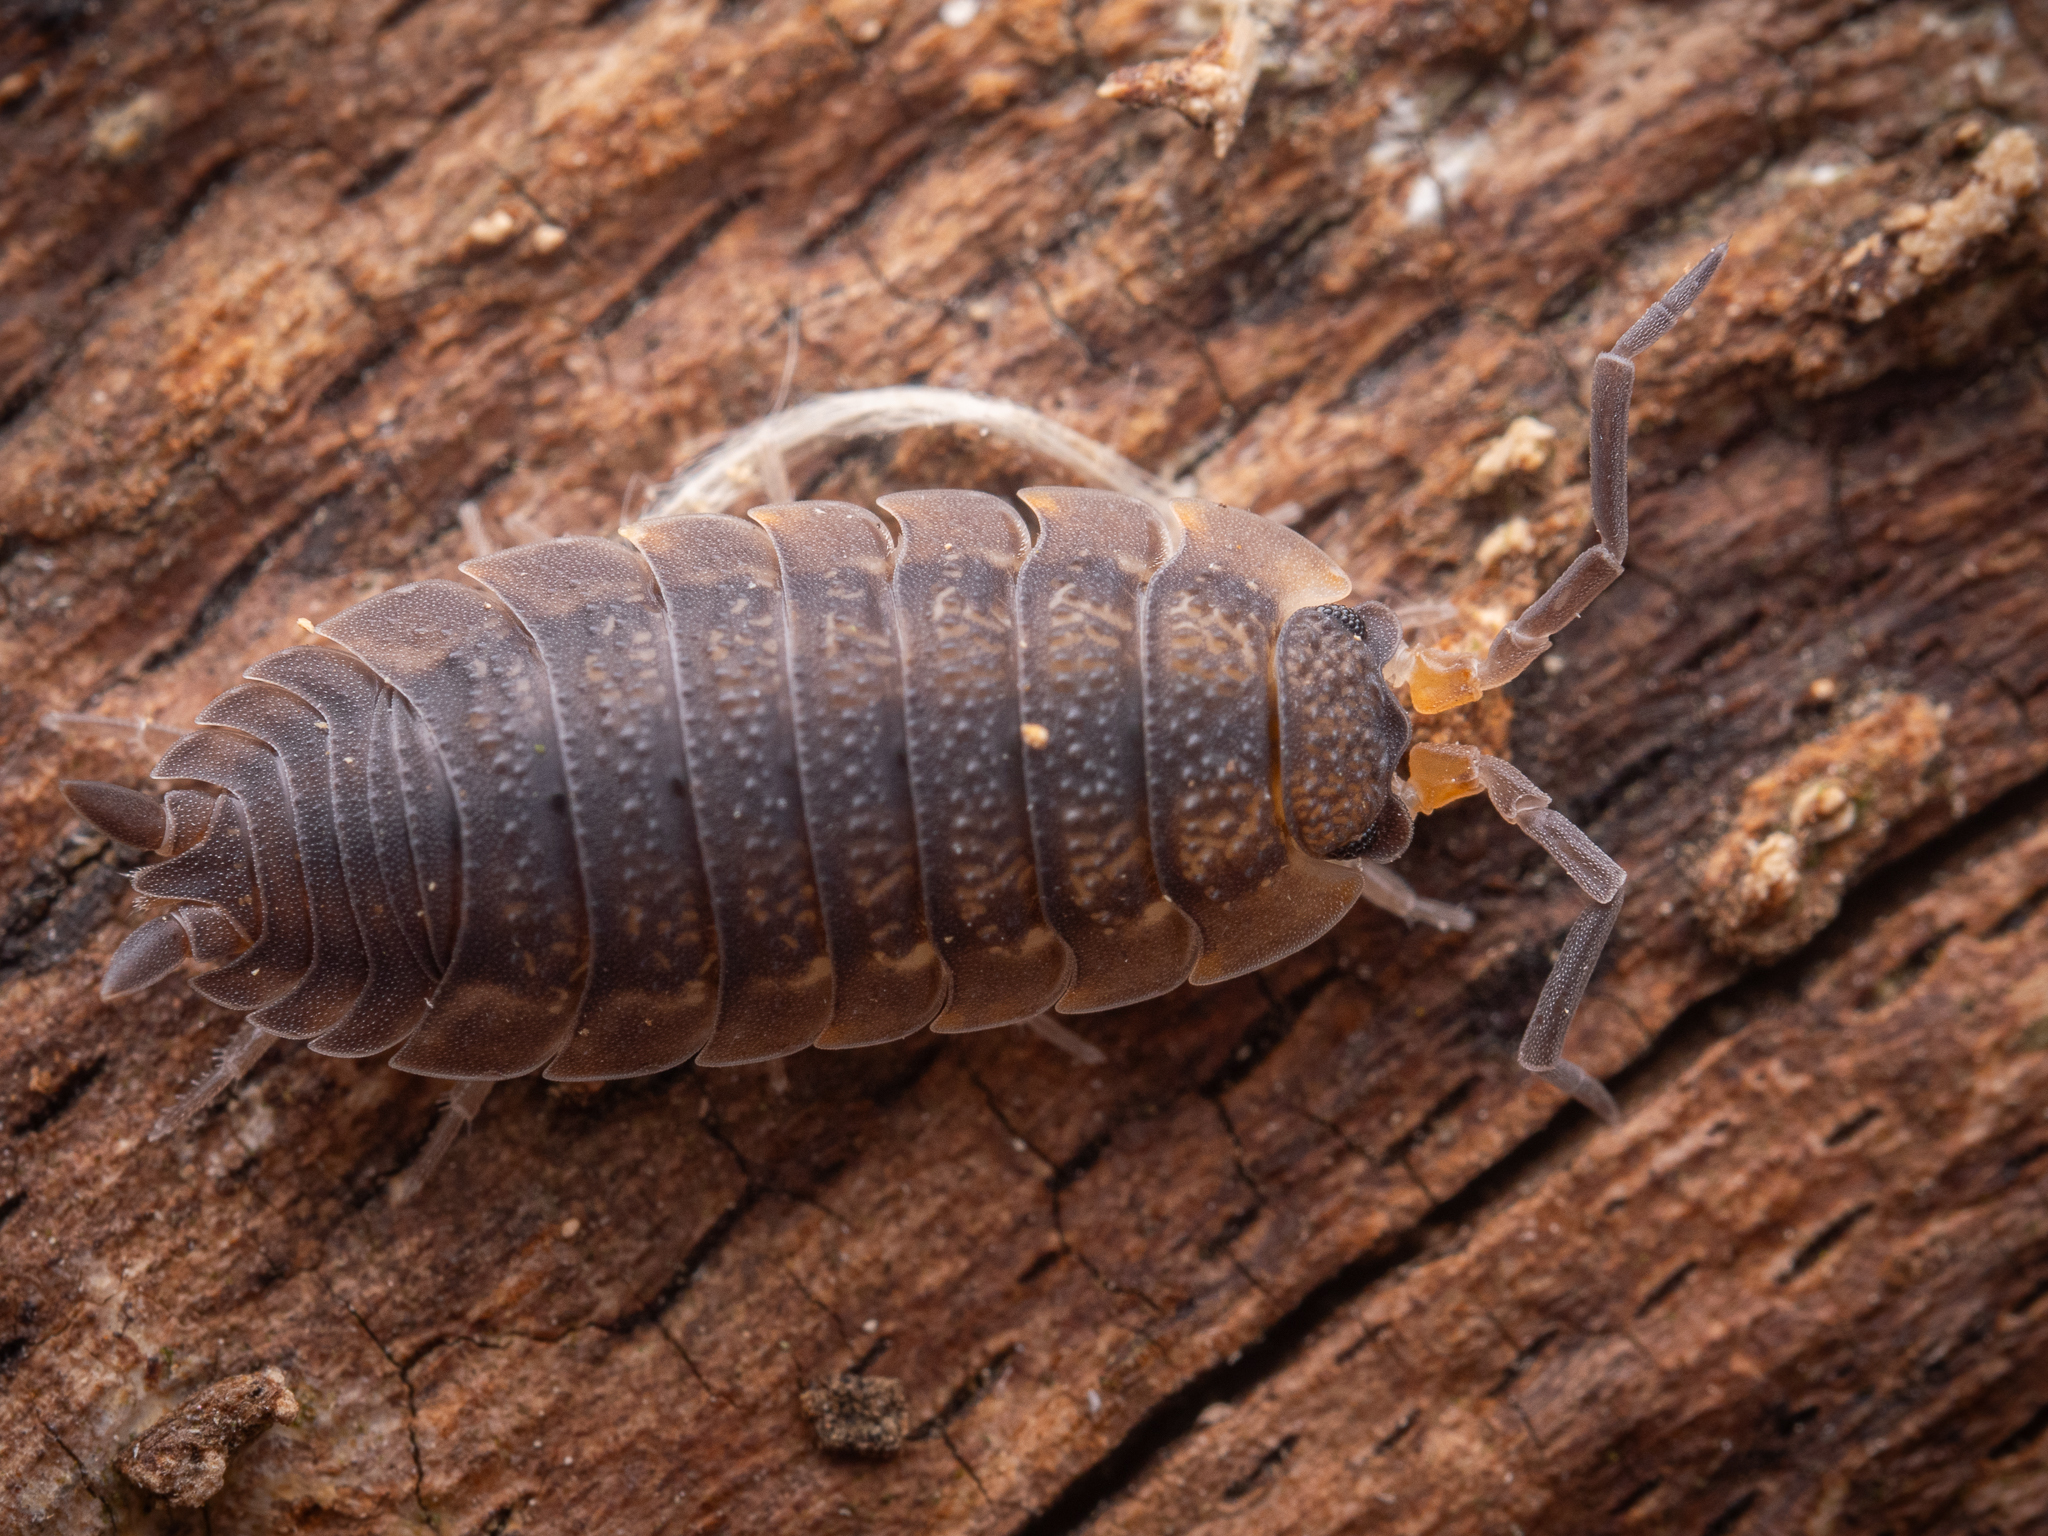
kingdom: Animalia
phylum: Arthropoda
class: Malacostraca
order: Isopoda
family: Porcellionidae
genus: Porcellio
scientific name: Porcellio scaber
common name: Common rough woodlouse
